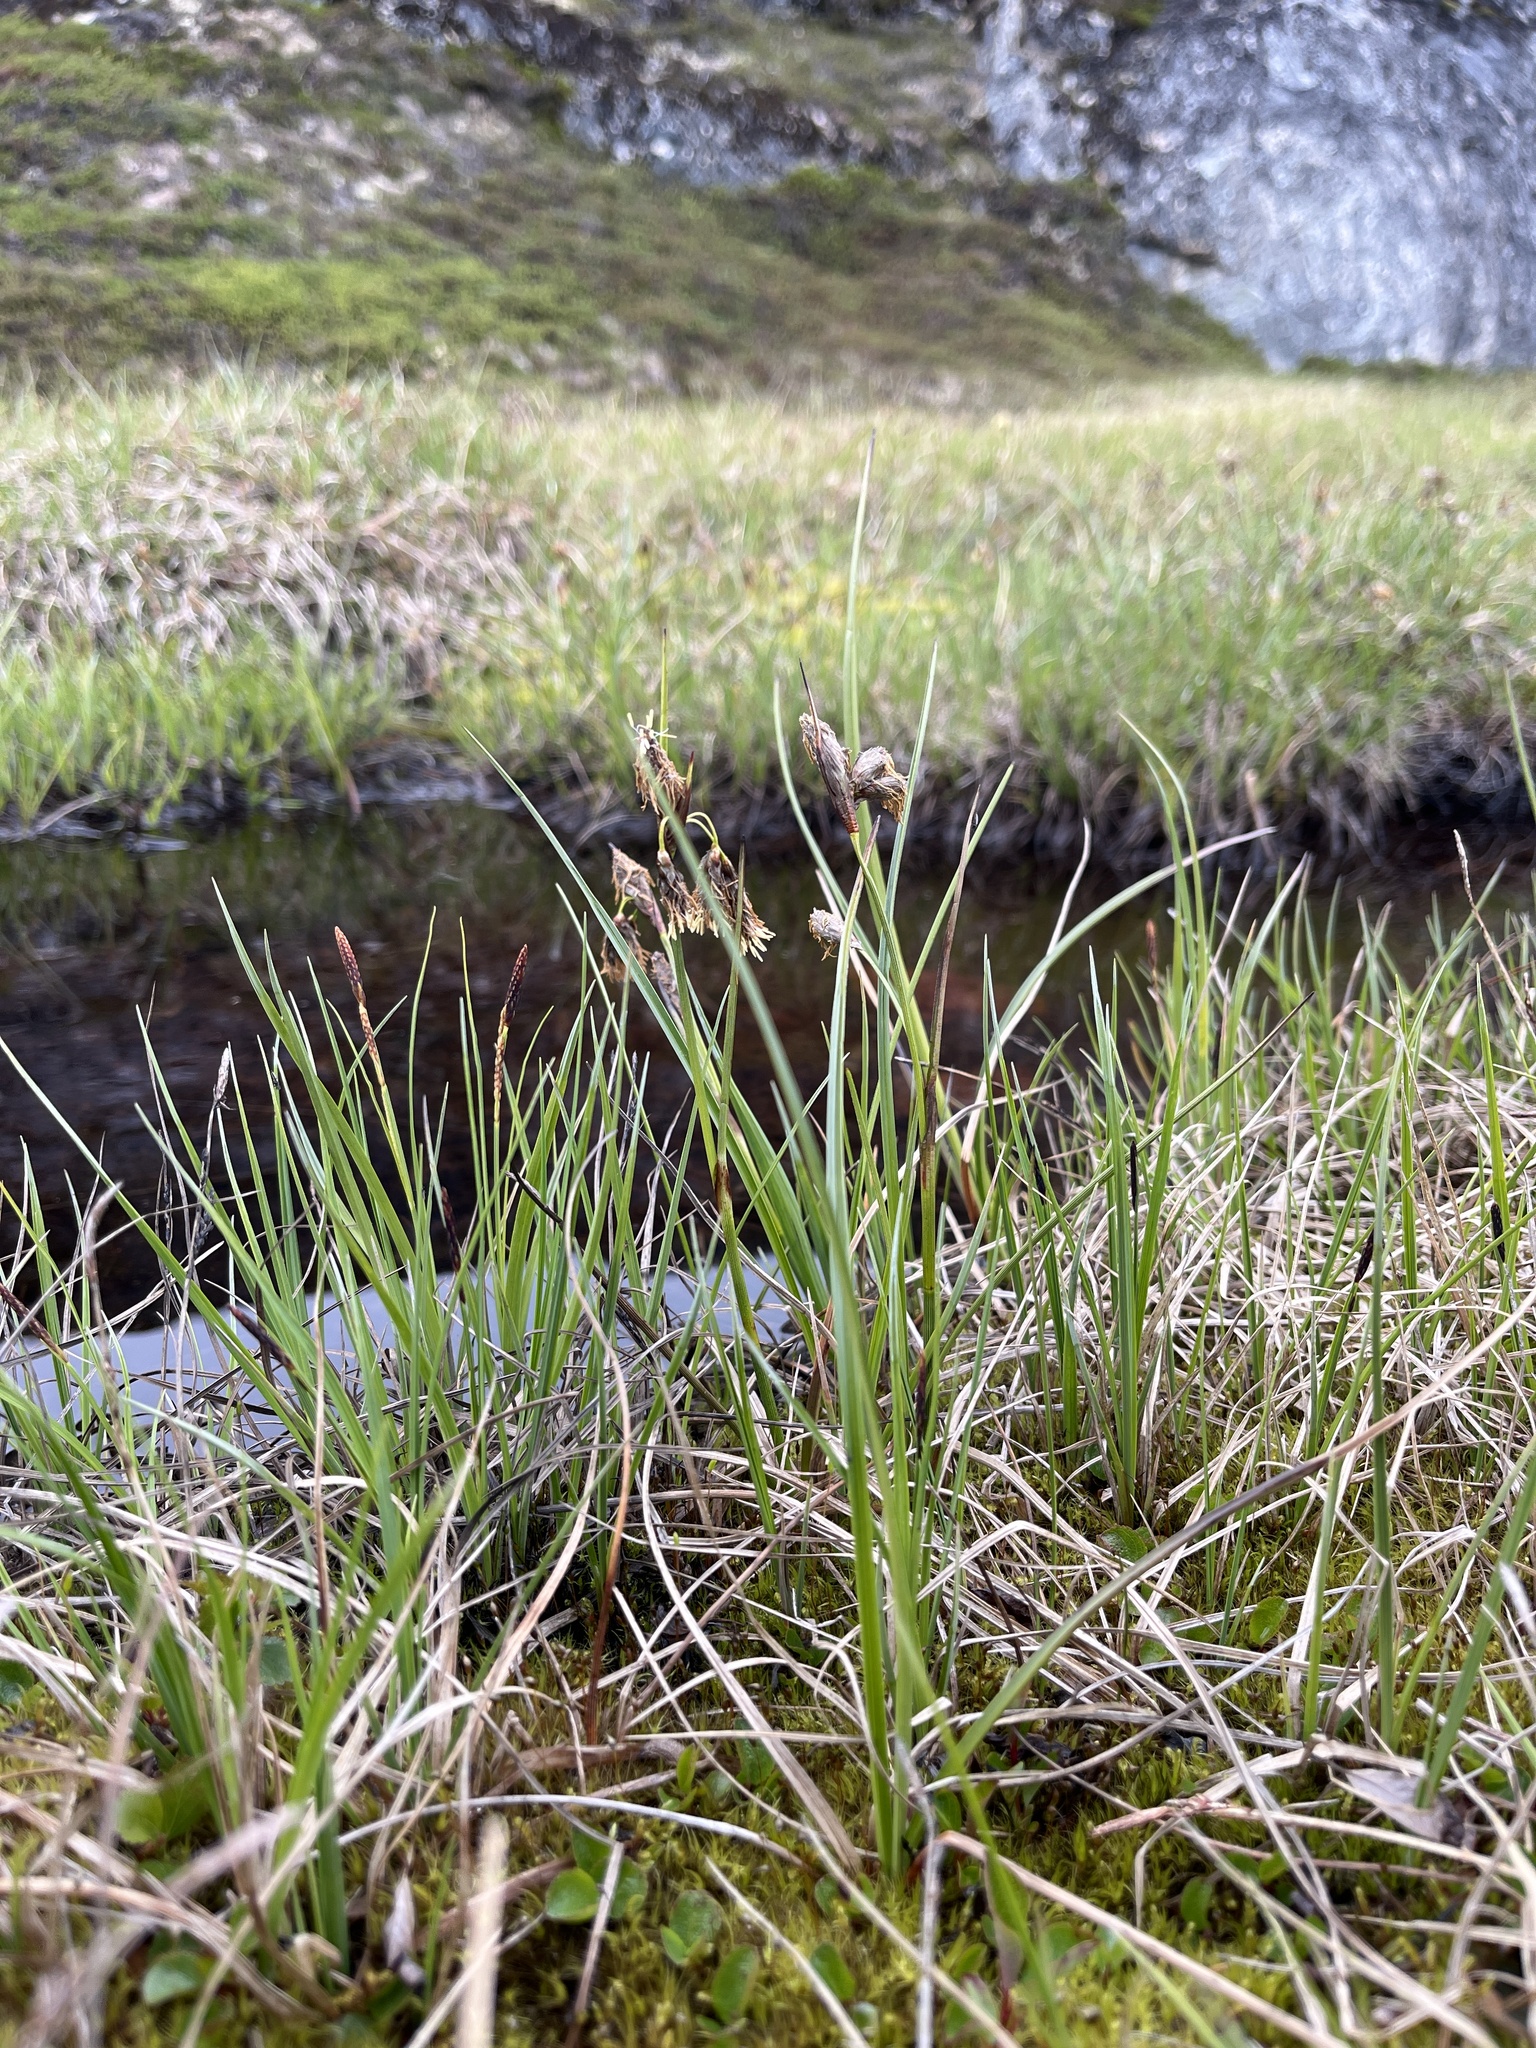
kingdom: Plantae
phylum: Tracheophyta
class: Liliopsida
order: Poales
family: Cyperaceae
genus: Eriophorum
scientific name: Eriophorum angustifolium
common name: Common cottongrass
